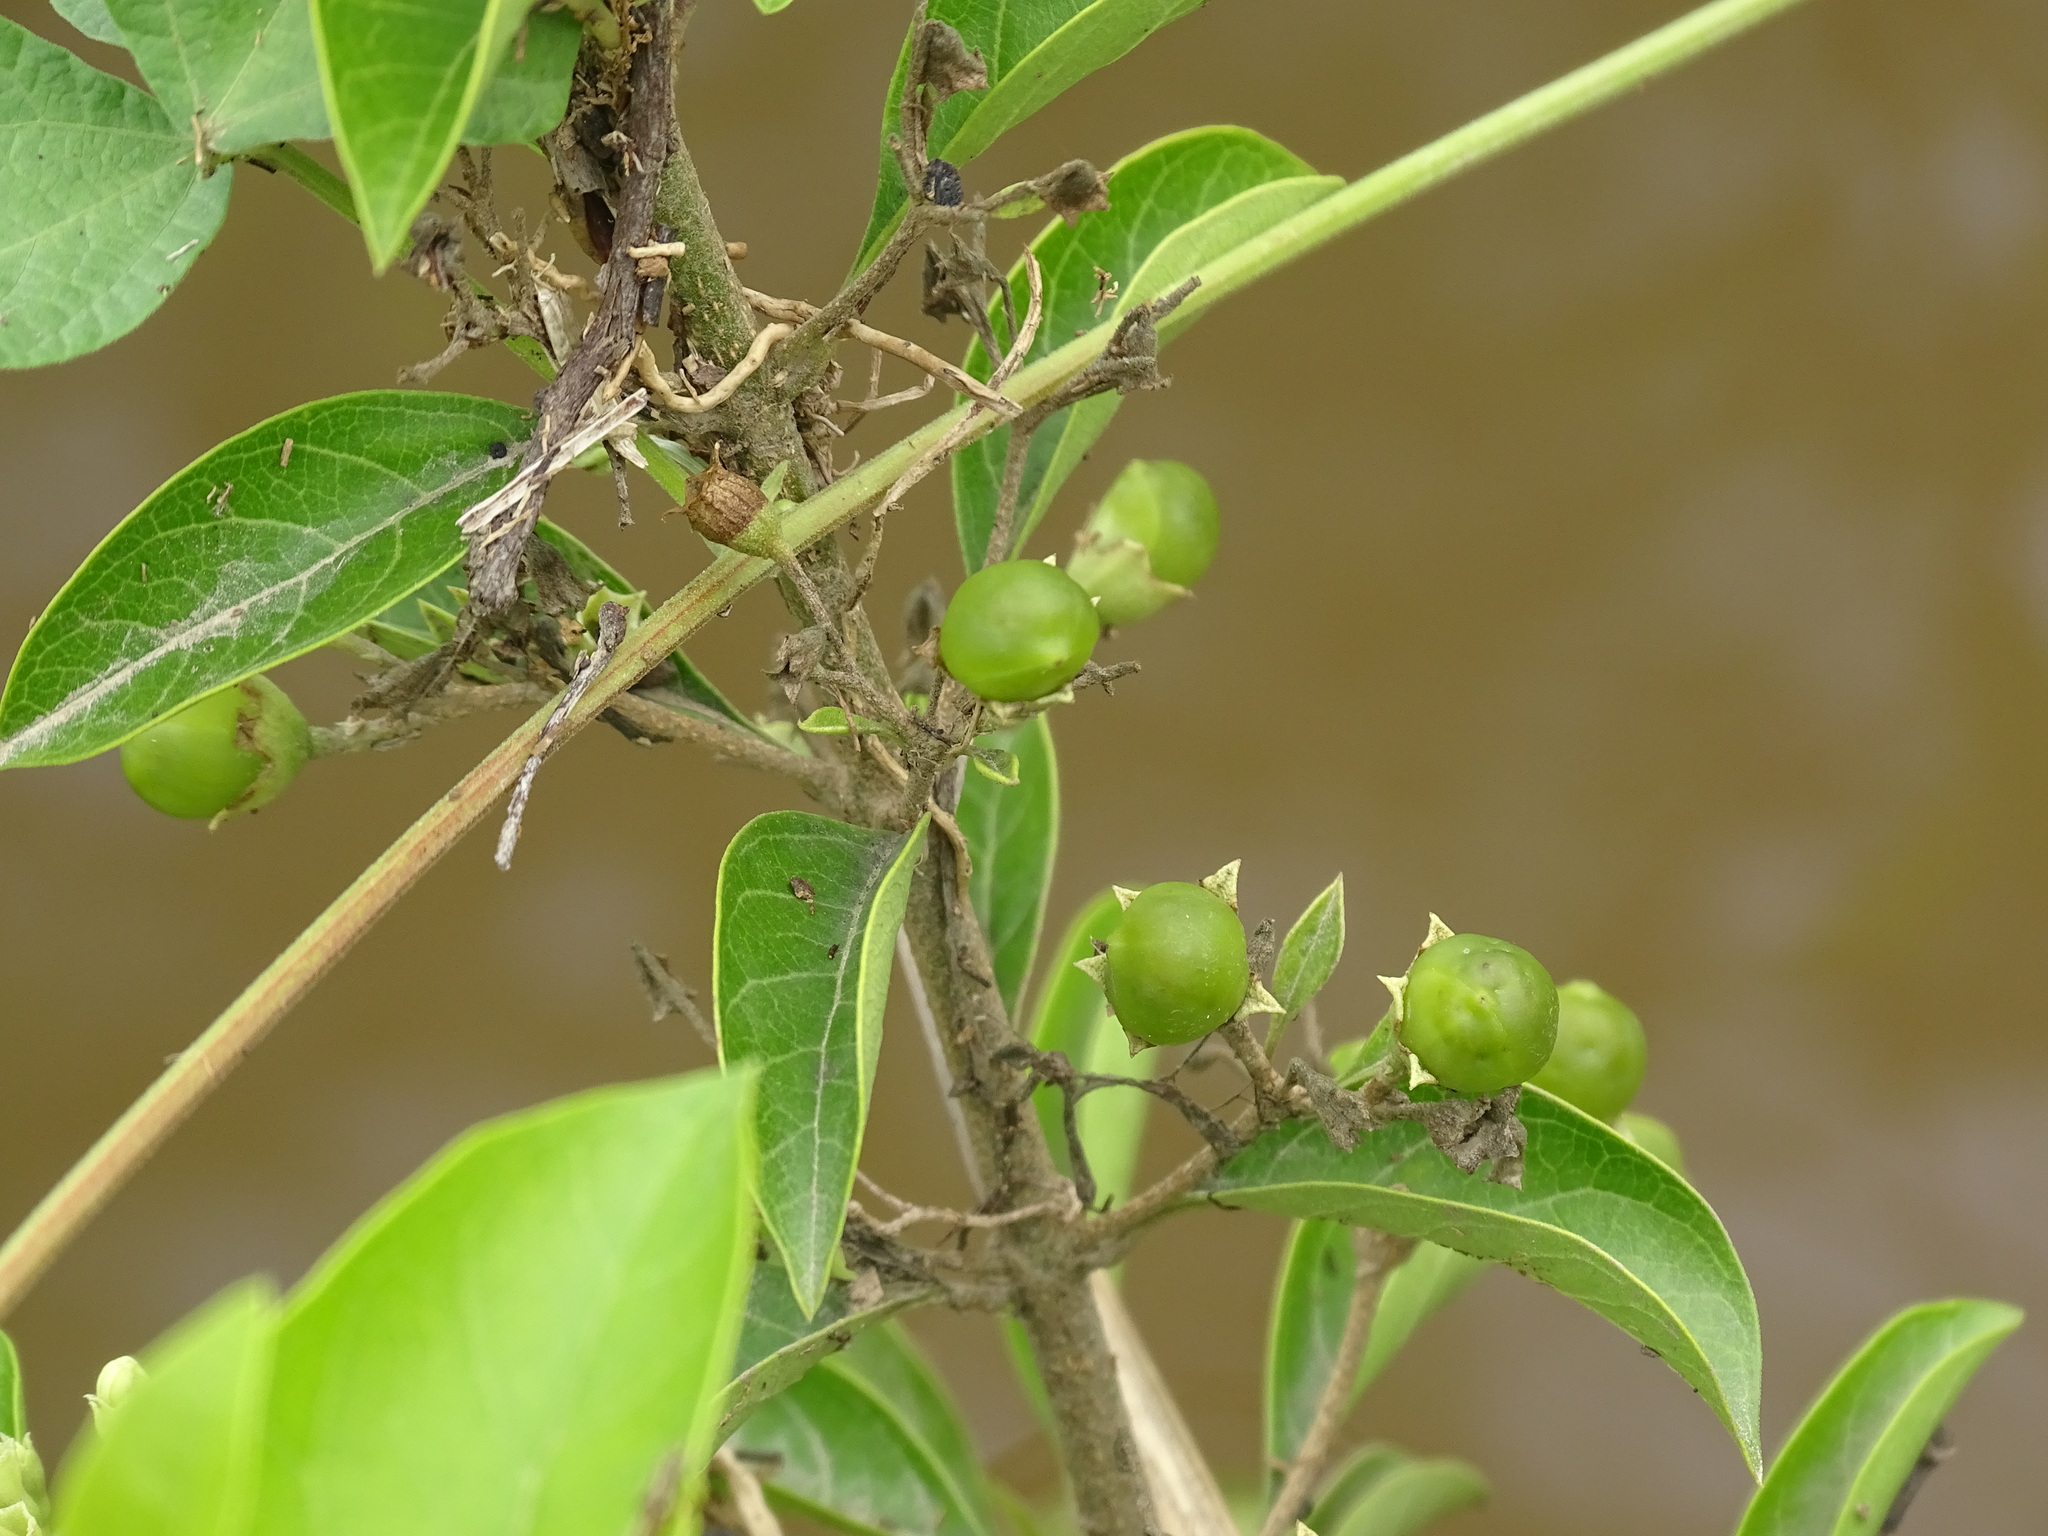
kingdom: Plantae
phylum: Tracheophyta
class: Magnoliopsida
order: Lamiales
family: Lamiaceae
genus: Volkameria
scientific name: Volkameria ligustrina
